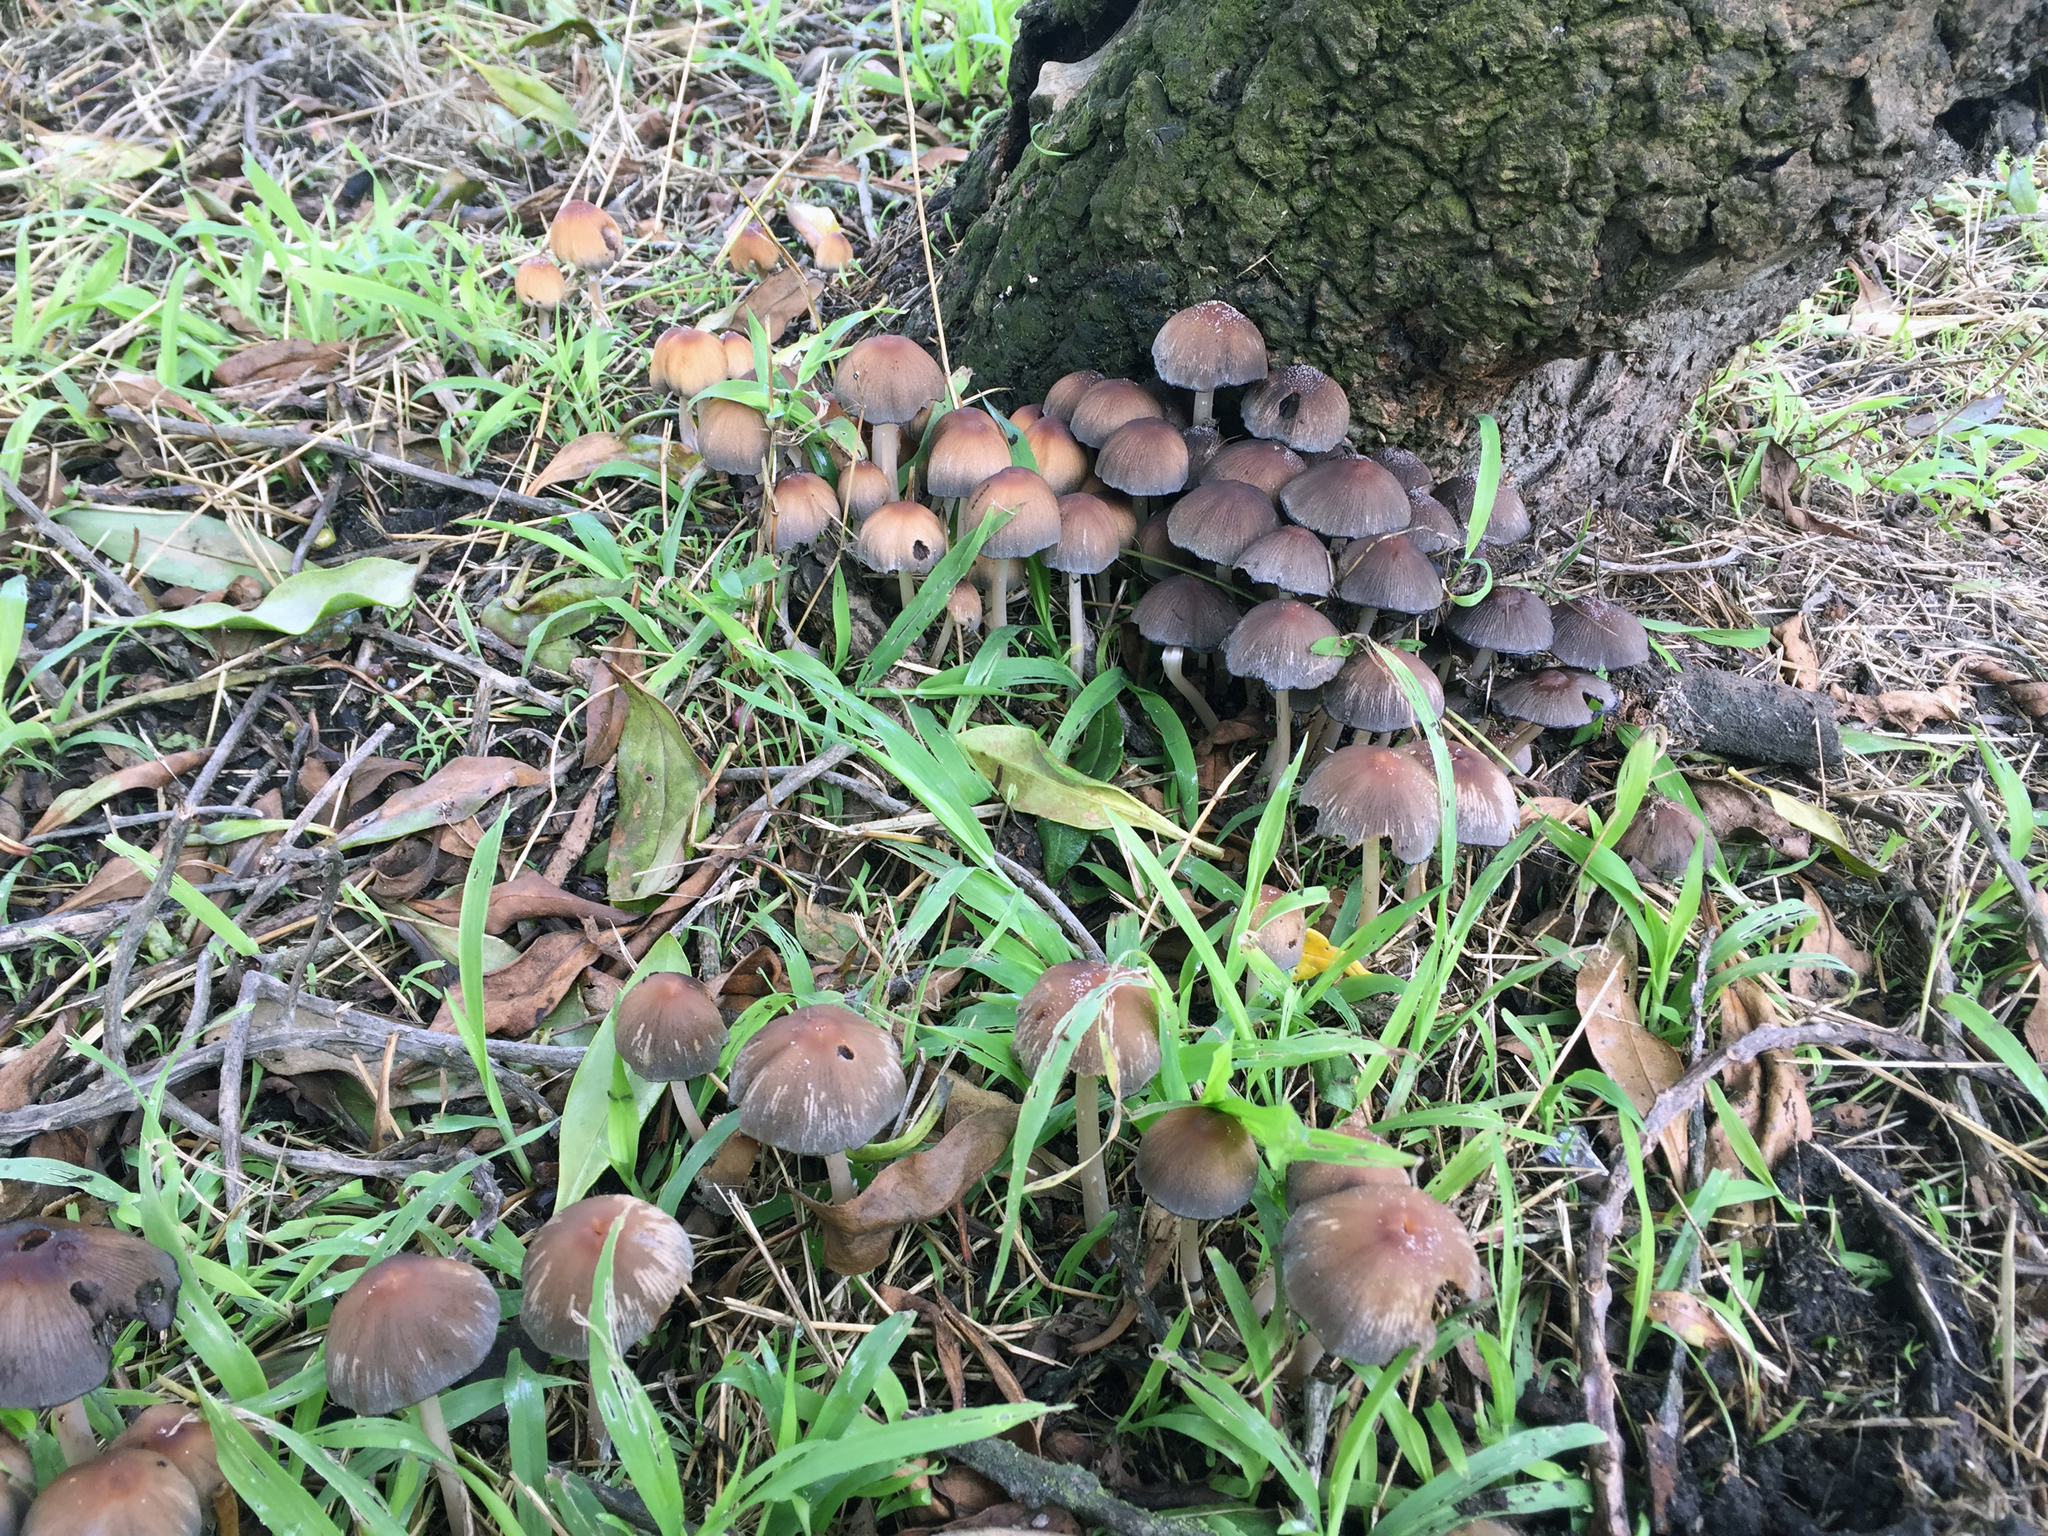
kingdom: Fungi
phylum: Basidiomycota
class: Agaricomycetes
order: Agaricales
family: Psathyrellaceae
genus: Coprinellus
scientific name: Coprinellus micaceus
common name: Glistening ink-cap
